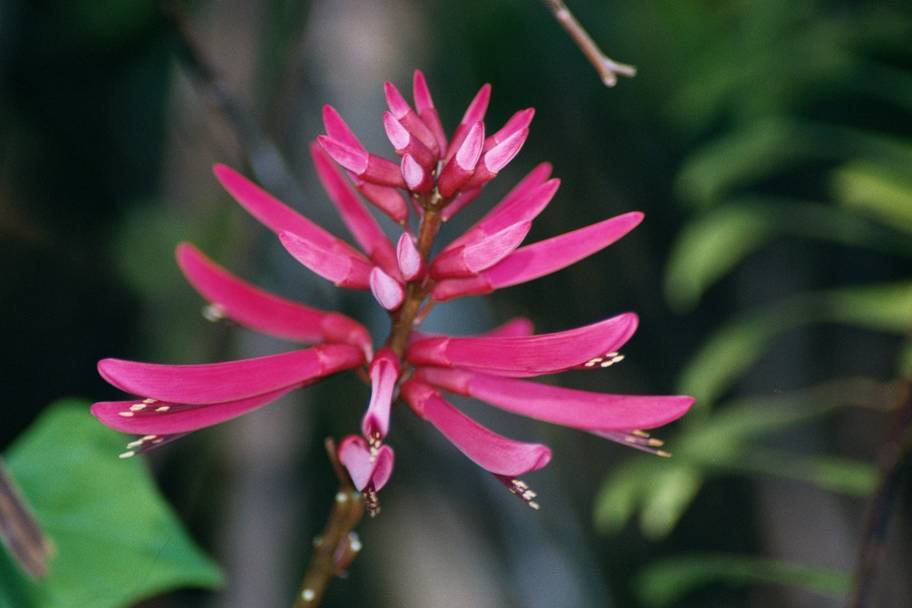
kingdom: Plantae
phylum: Tracheophyta
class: Magnoliopsida
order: Fabales
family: Fabaceae
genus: Erythrina
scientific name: Erythrina herbacea
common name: Coral-bean
